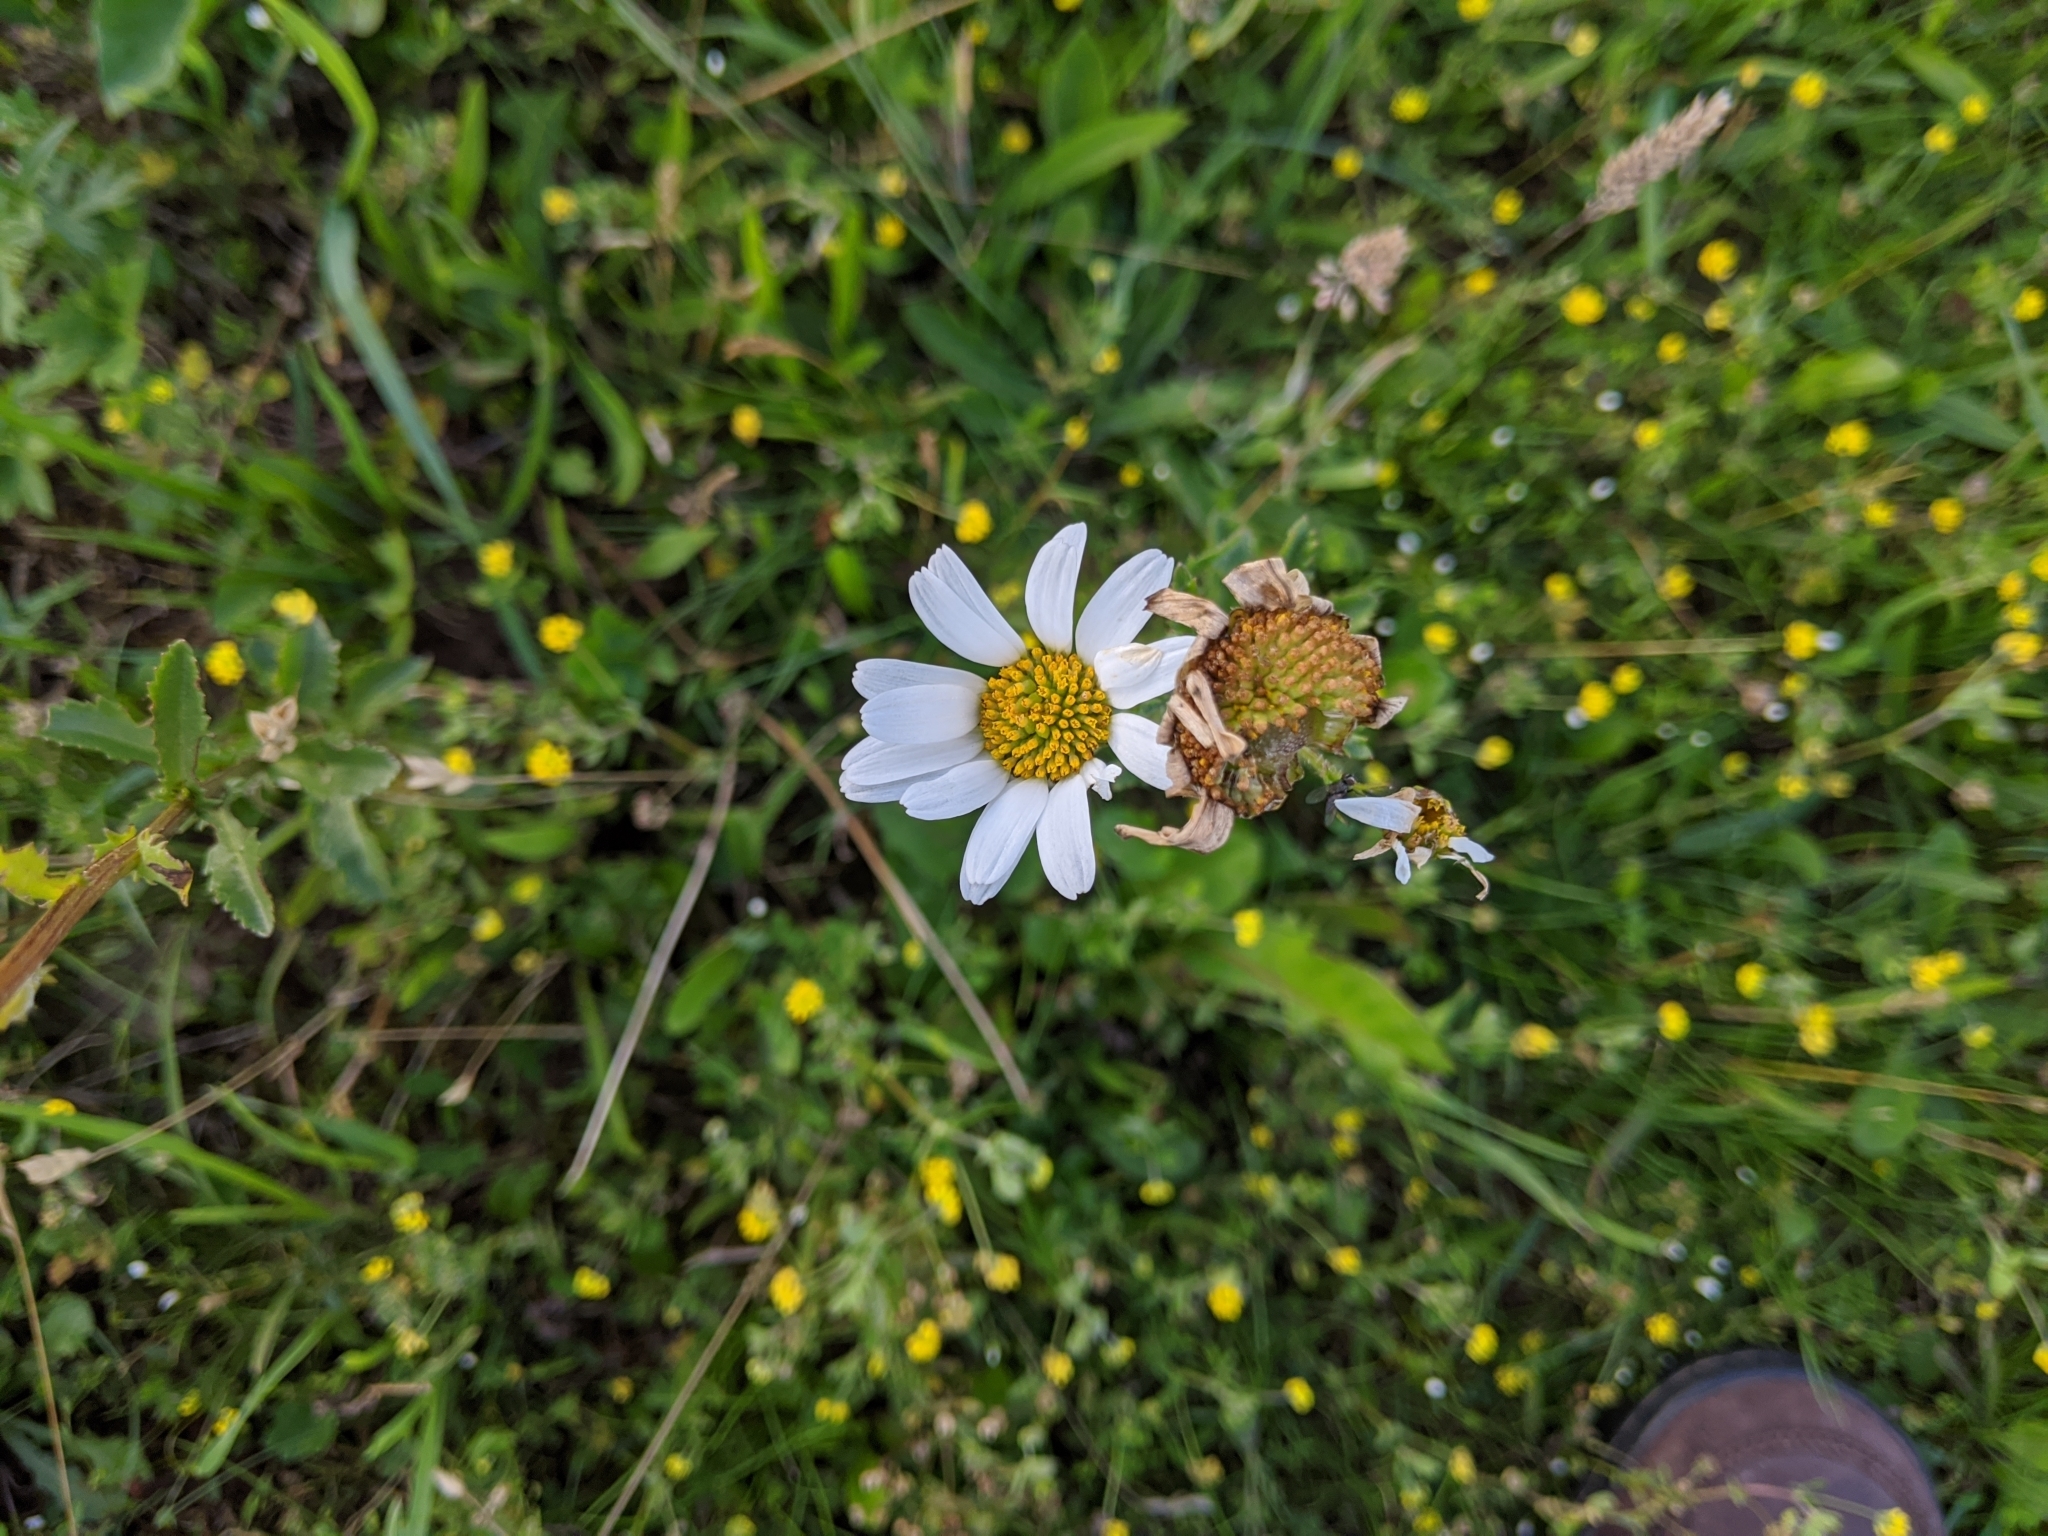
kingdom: Plantae
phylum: Tracheophyta
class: Magnoliopsida
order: Asterales
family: Asteraceae
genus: Leucanthemum
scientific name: Leucanthemum vulgare
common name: Oxeye daisy
